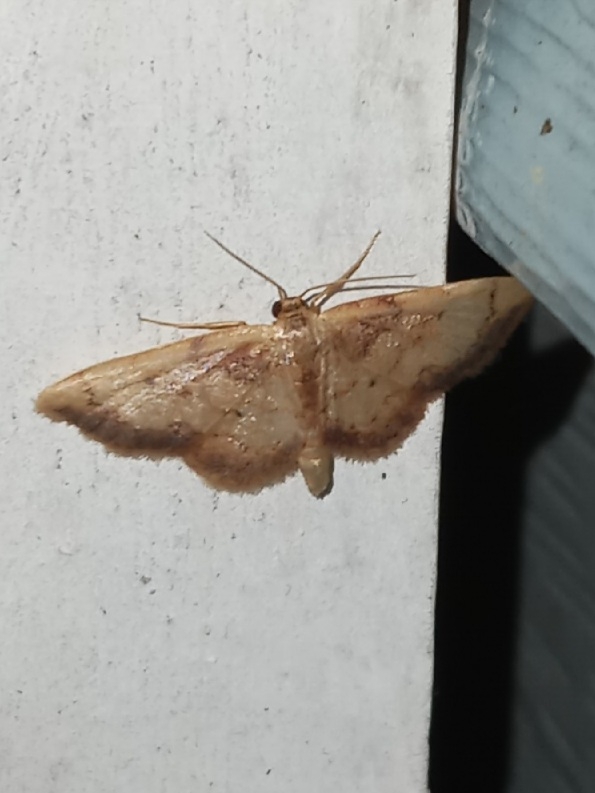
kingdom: Animalia
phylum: Arthropoda
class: Insecta
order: Lepidoptera
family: Geometridae
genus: Idaea
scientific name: Idaea demissaria
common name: Red-bordered wave
